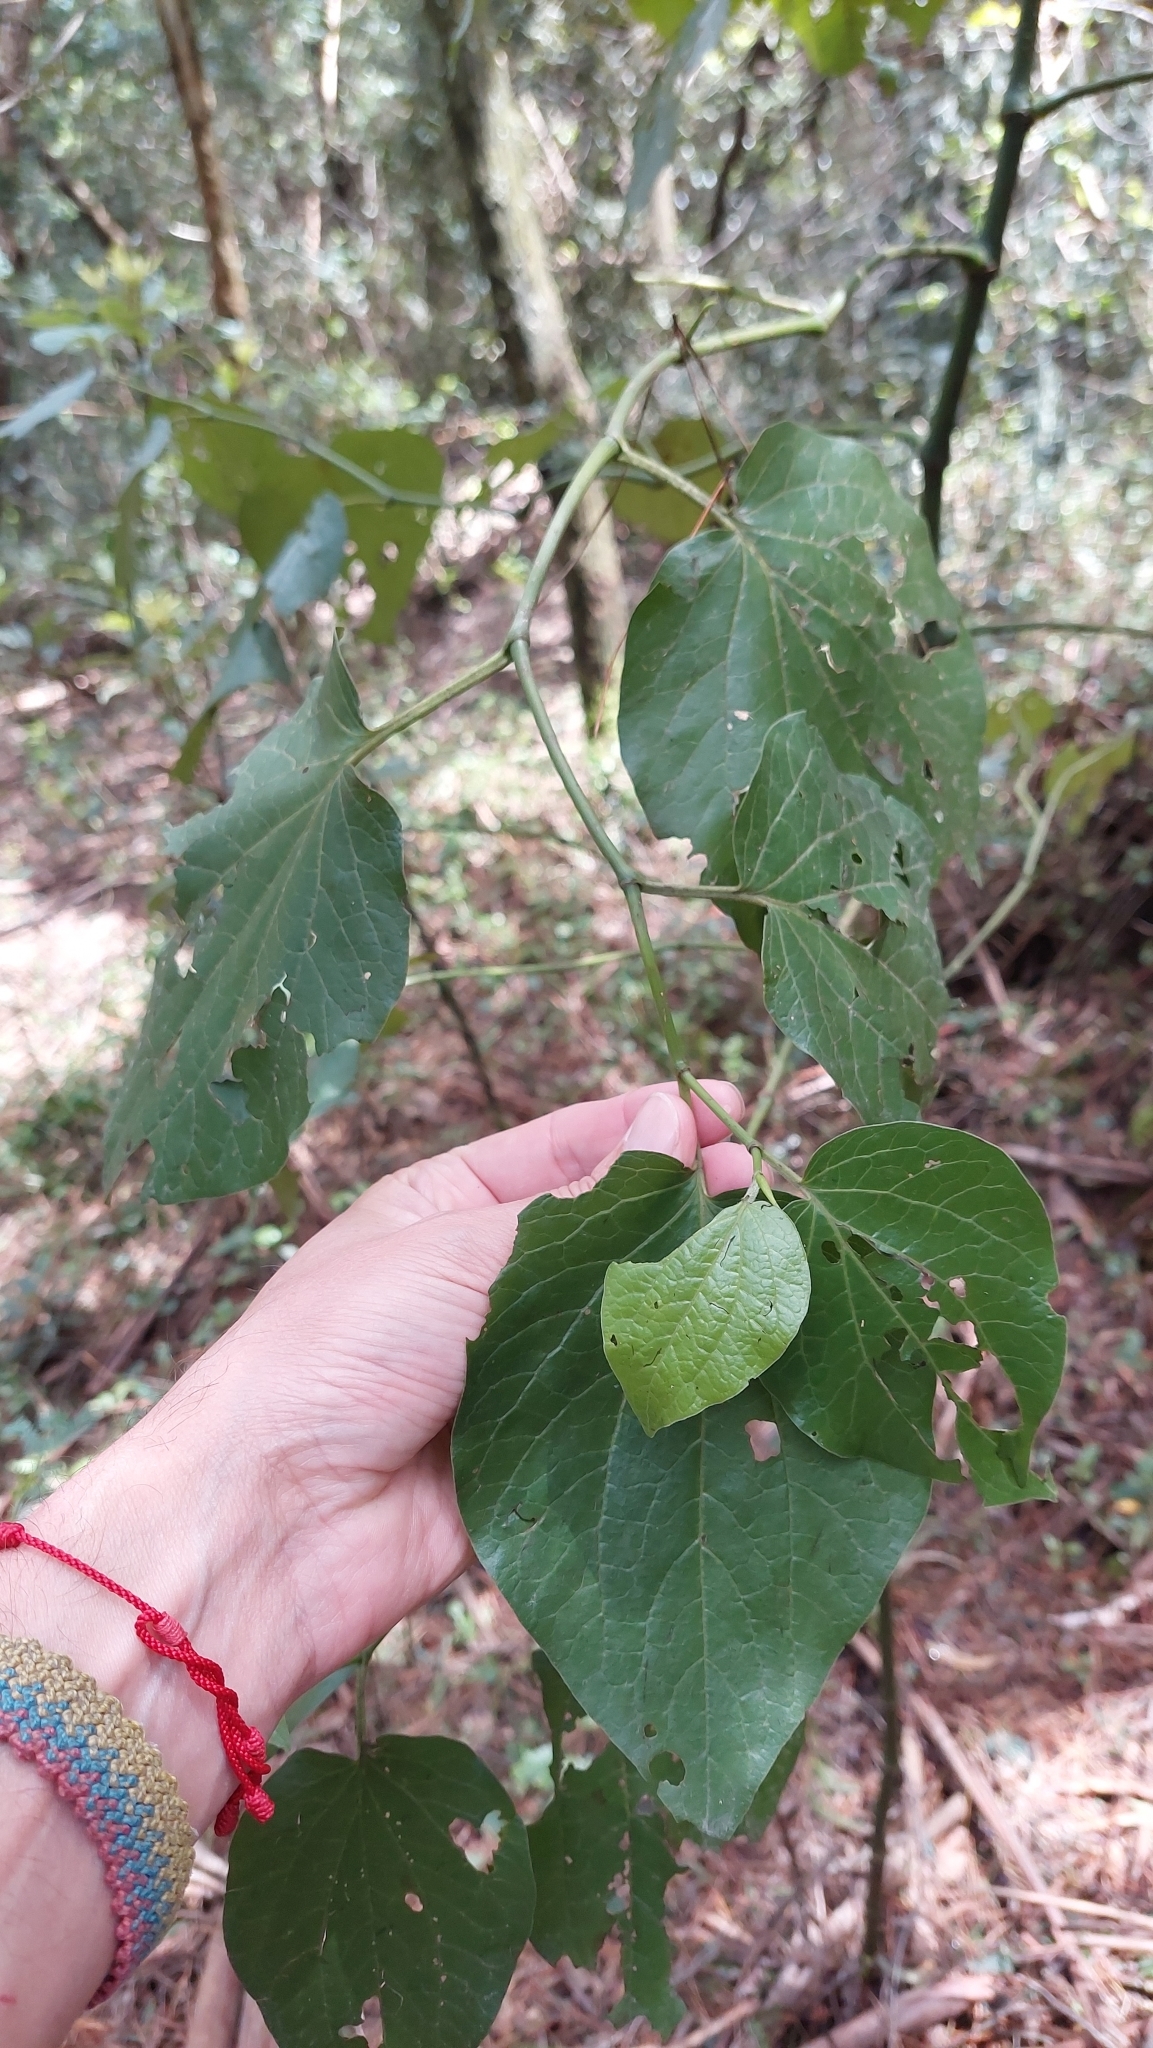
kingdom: Plantae
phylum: Tracheophyta
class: Magnoliopsida
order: Piperales
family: Piperaceae
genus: Piper
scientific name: Piper barbatum
